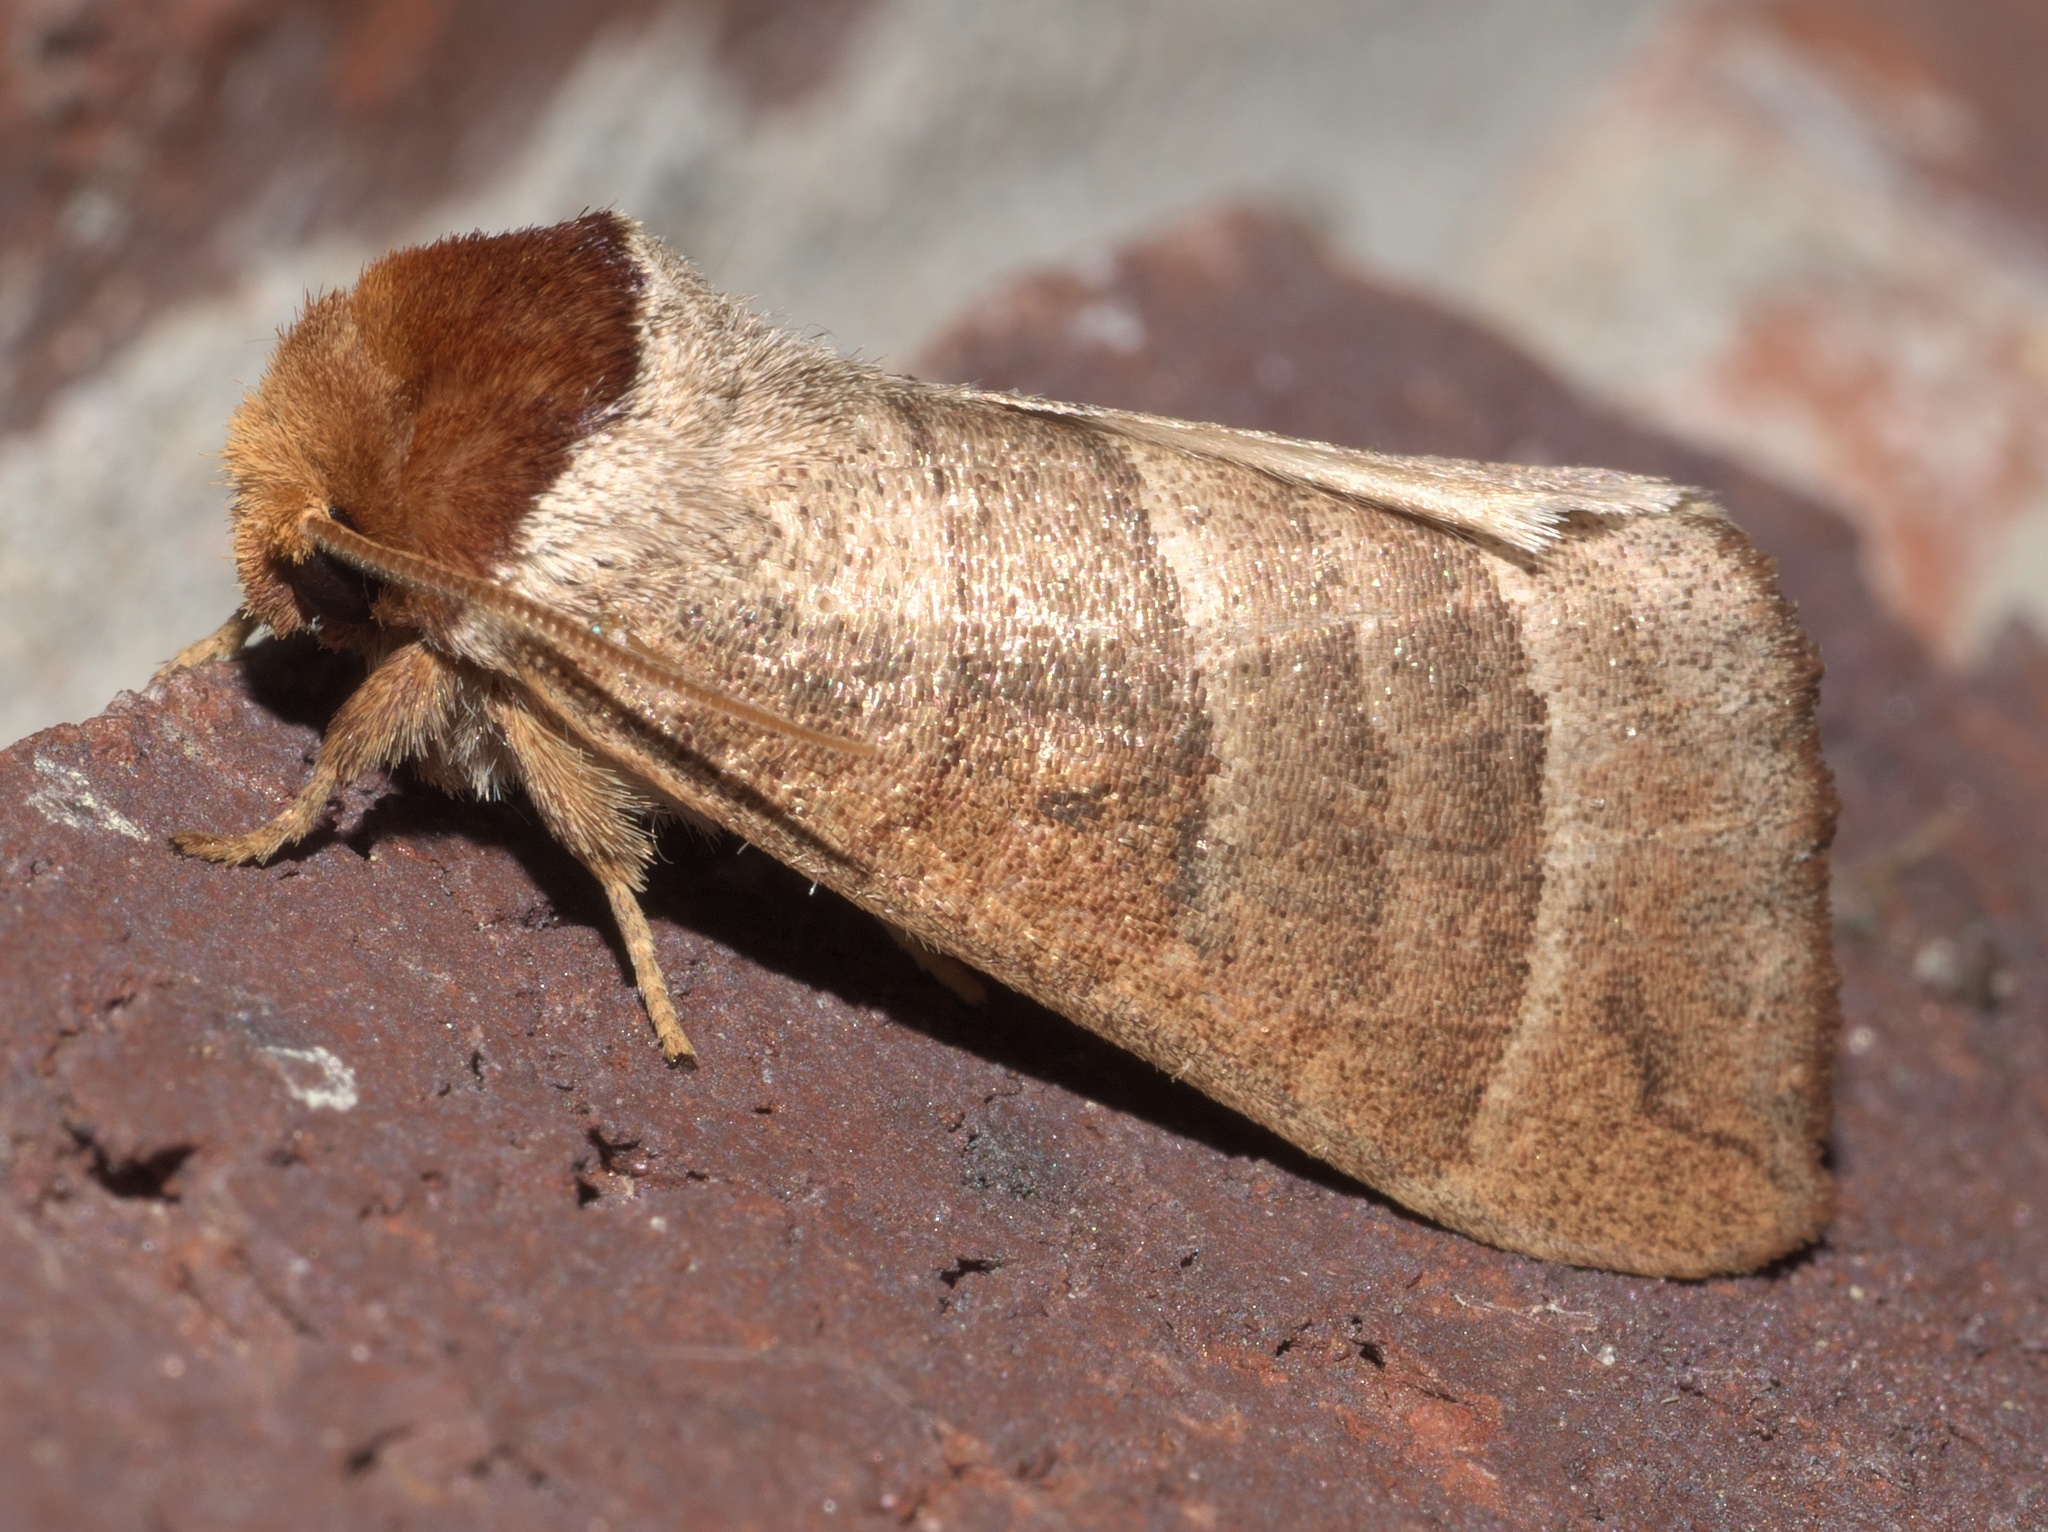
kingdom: Animalia
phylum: Arthropoda
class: Insecta
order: Lepidoptera
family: Notodontidae
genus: Datana
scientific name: Datana integerrima
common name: Walnut caterpillar
